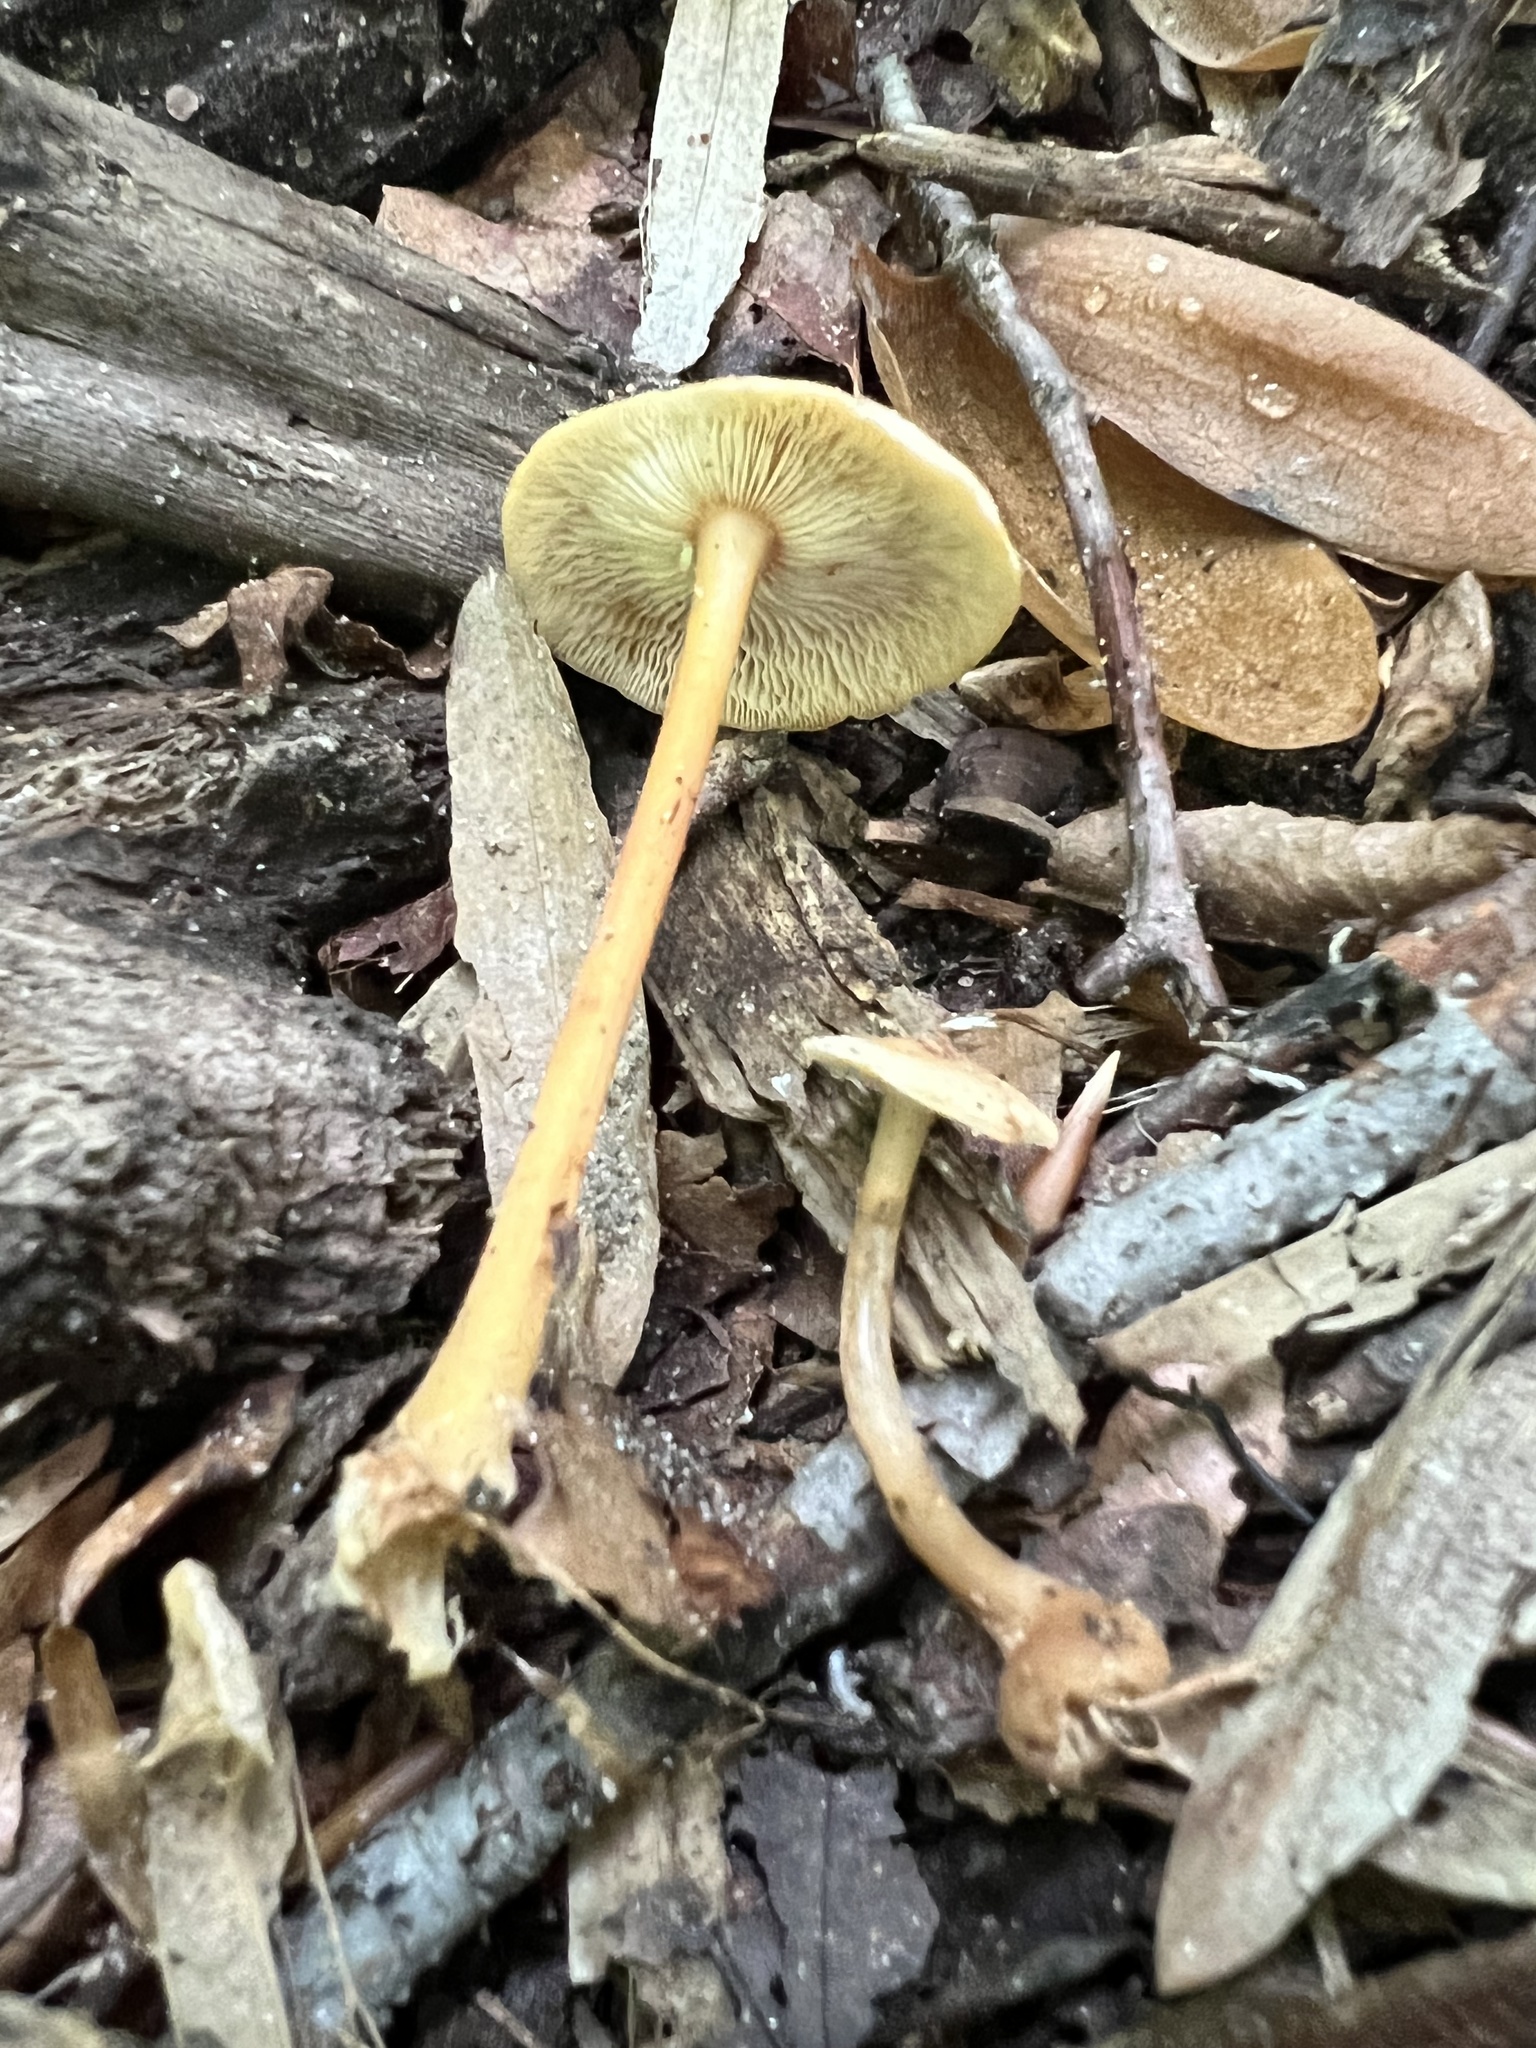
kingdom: Fungi
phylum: Basidiomycota
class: Agaricomycetes
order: Agaricales
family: Omphalotaceae
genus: Gymnopus
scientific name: Gymnopus subsulphureus
